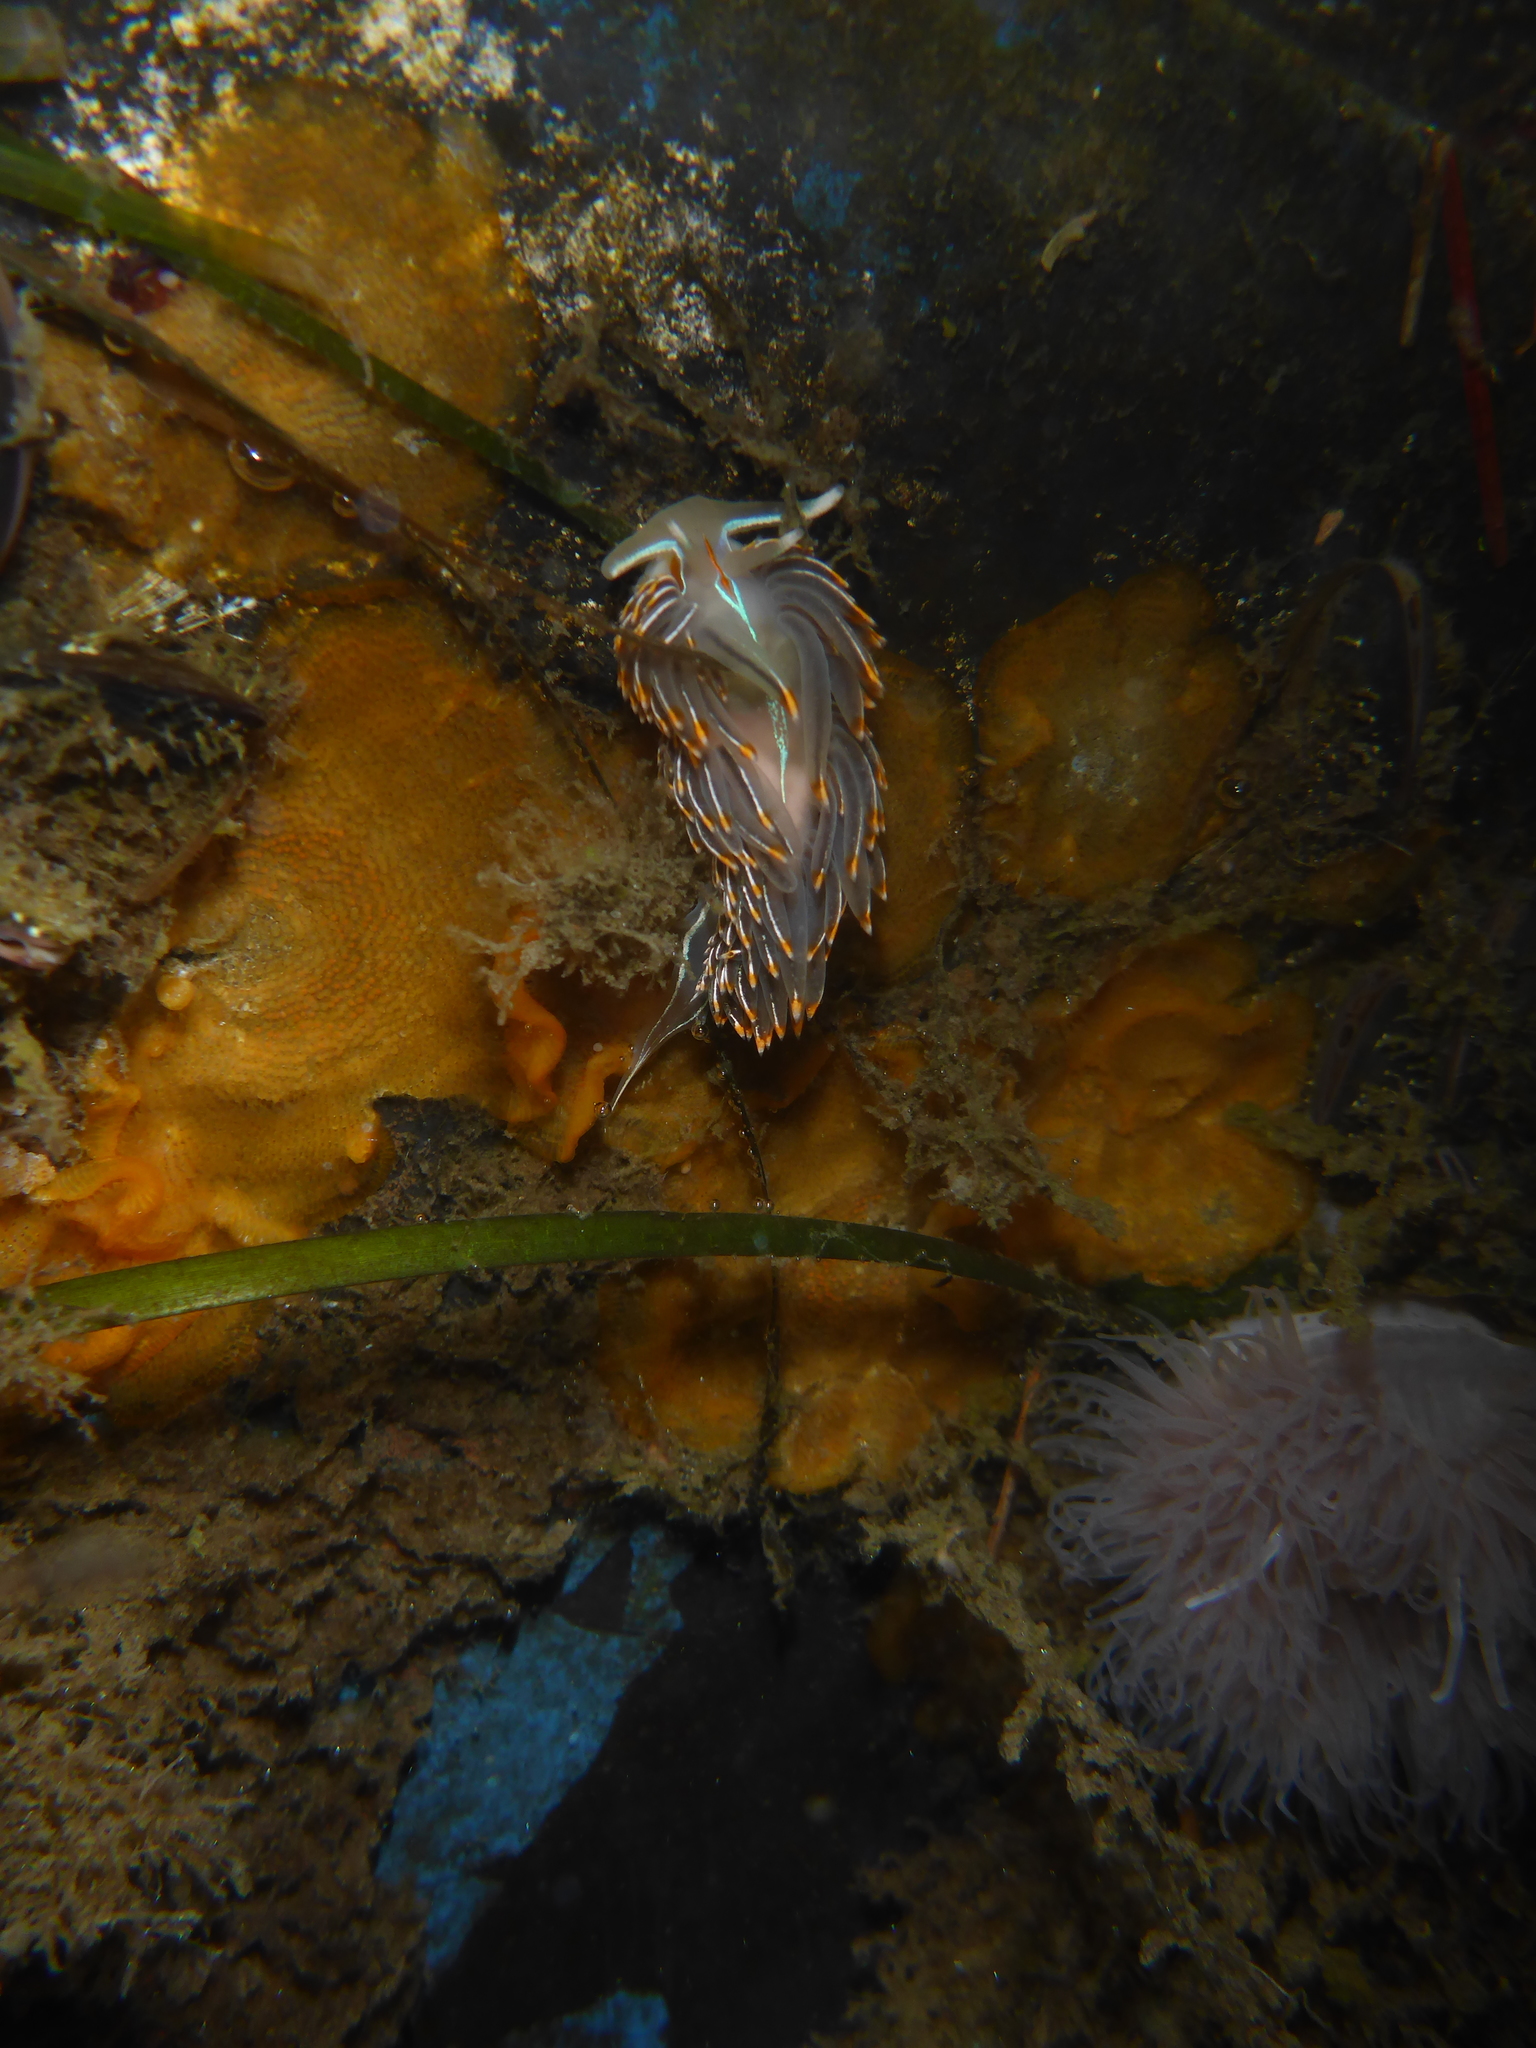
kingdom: Animalia
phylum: Mollusca
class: Gastropoda
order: Nudibranchia
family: Myrrhinidae
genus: Hermissenda
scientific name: Hermissenda crassicornis
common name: Hermissenda
